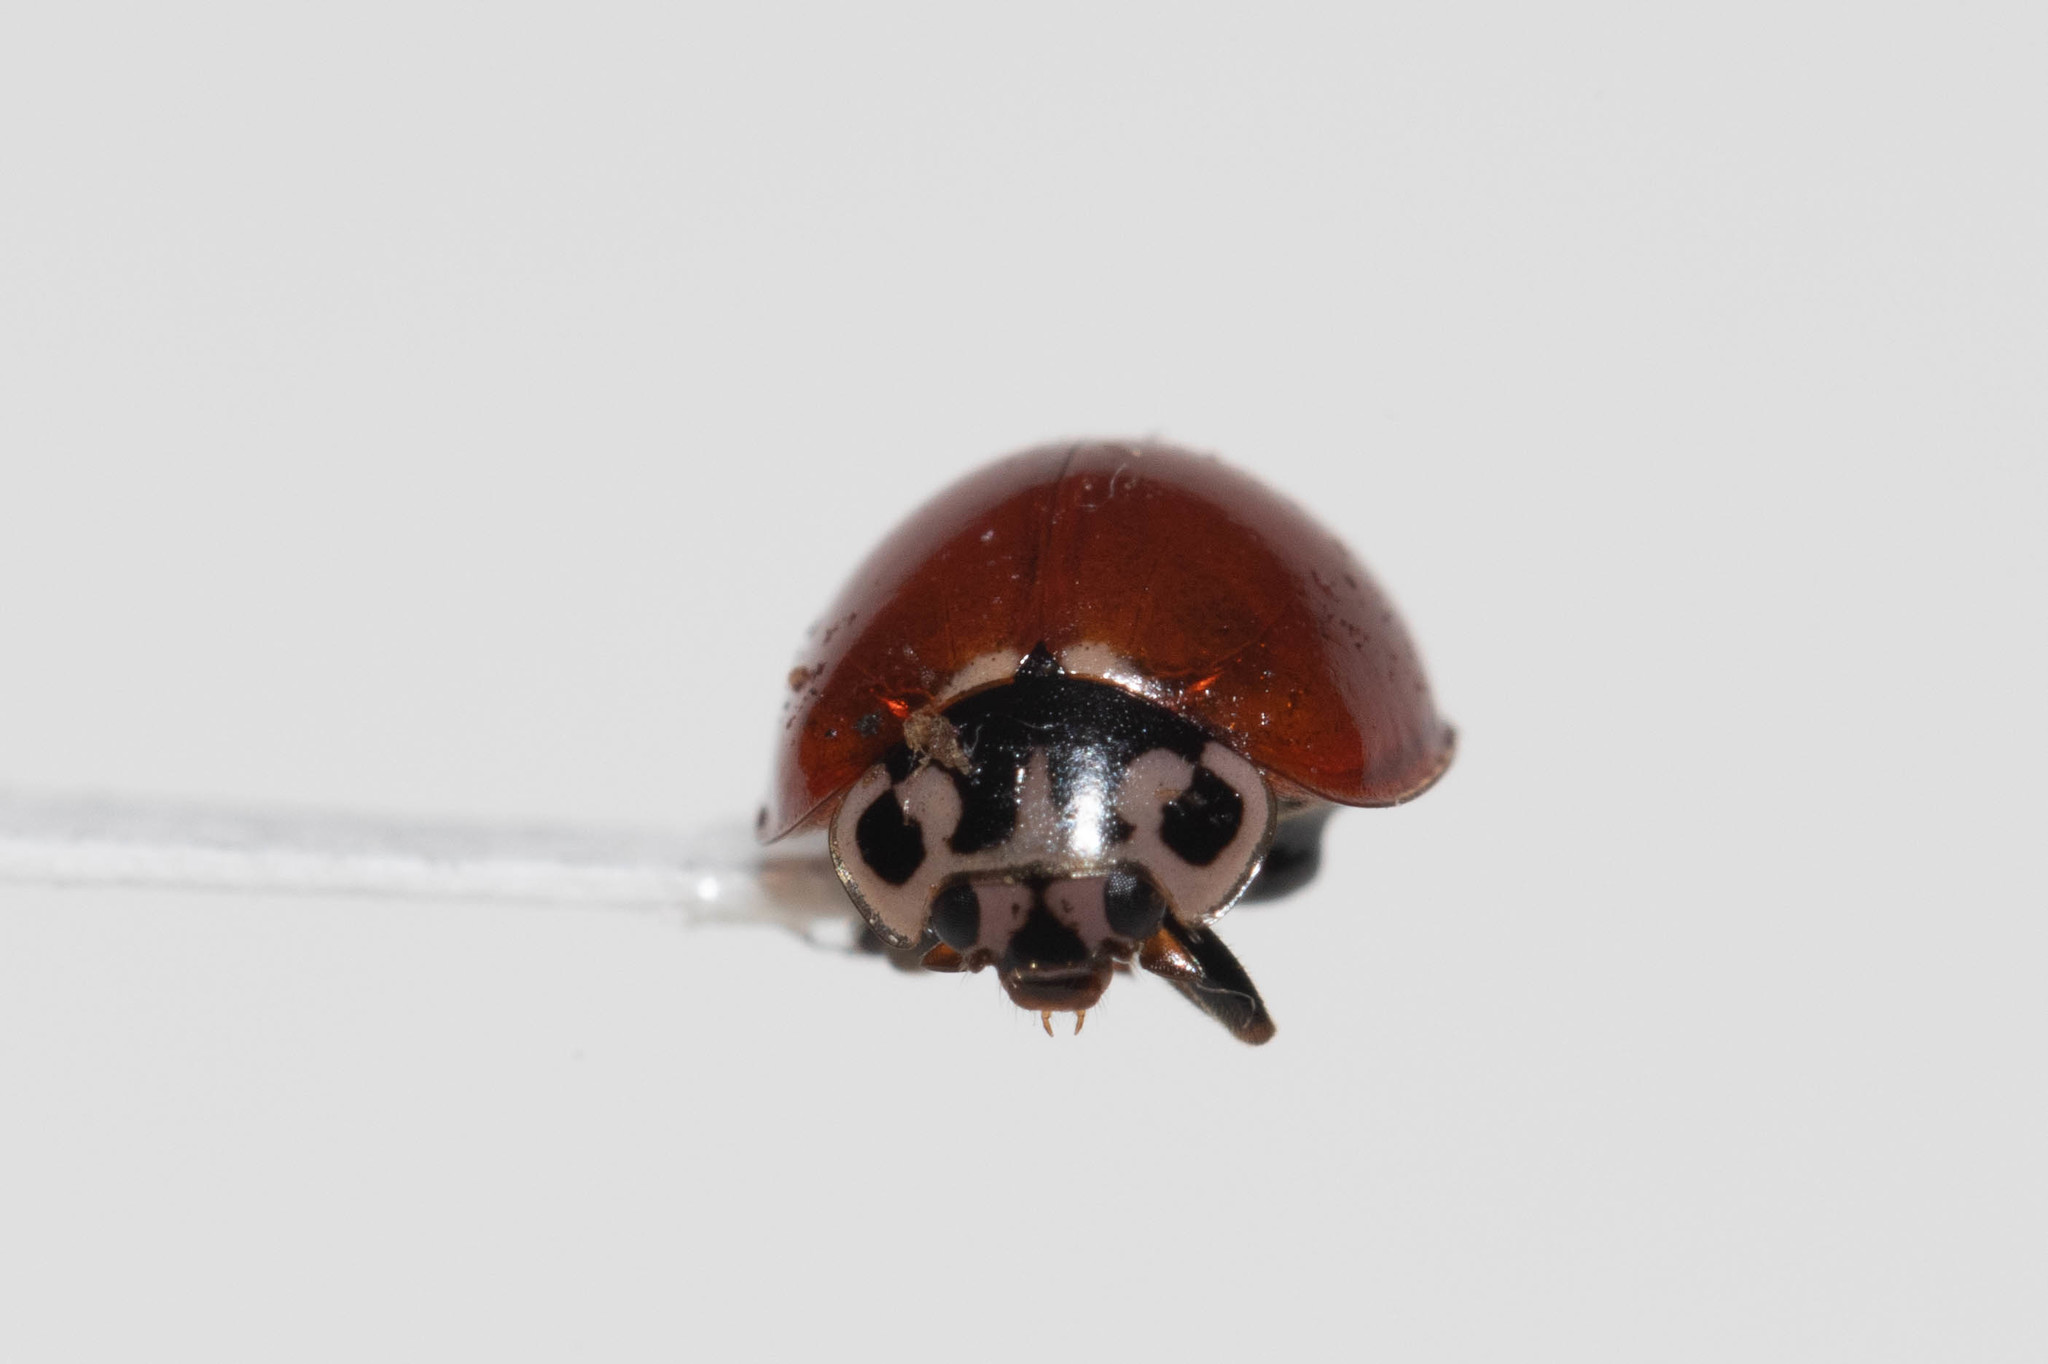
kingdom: Animalia
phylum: Arthropoda
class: Insecta
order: Coleoptera
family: Coccinellidae
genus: Cycloneda
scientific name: Cycloneda polita
